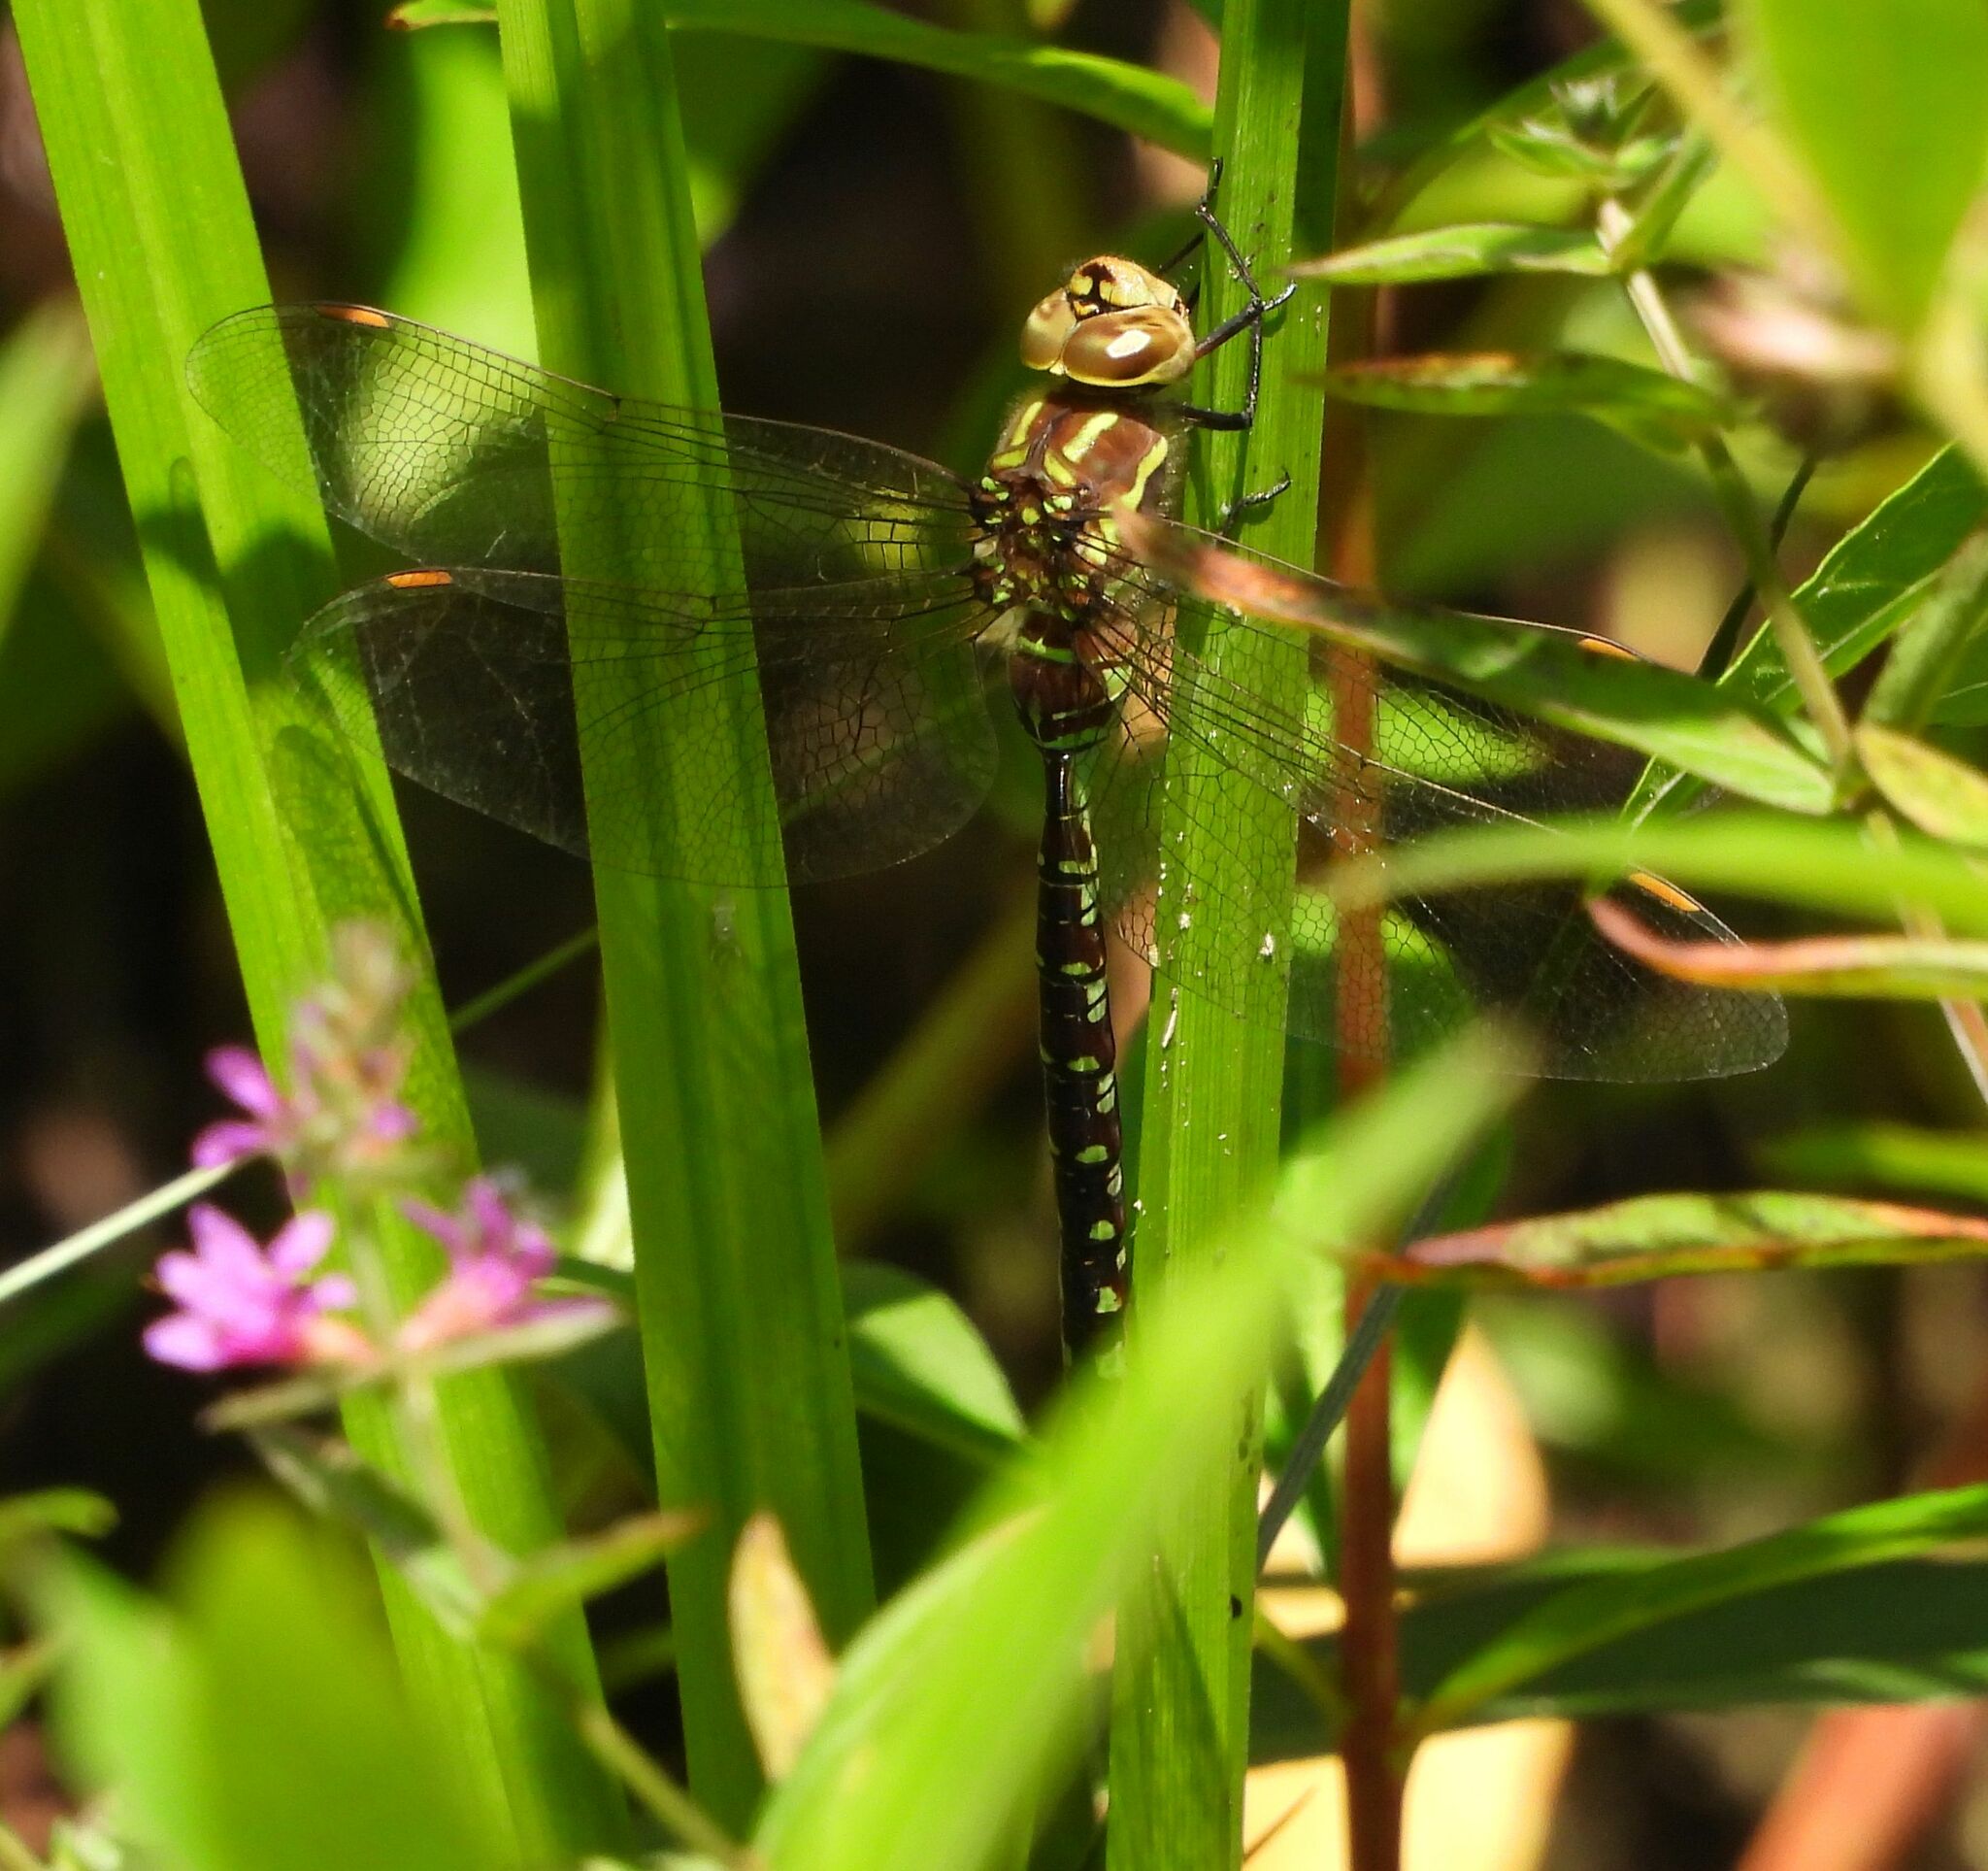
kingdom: Animalia
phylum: Arthropoda
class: Insecta
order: Odonata
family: Aeshnidae
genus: Aeshna
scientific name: Aeshna constricta
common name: Lance-tipped darner
